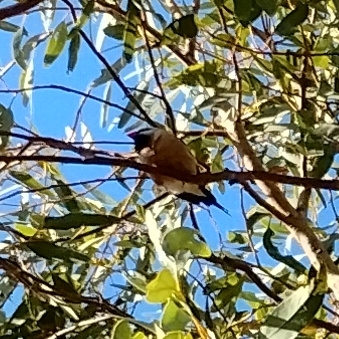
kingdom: Animalia
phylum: Chordata
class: Aves
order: Passeriformes
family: Estrildidae
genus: Poephila
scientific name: Poephila acuticauda
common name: Long-tailed finch
